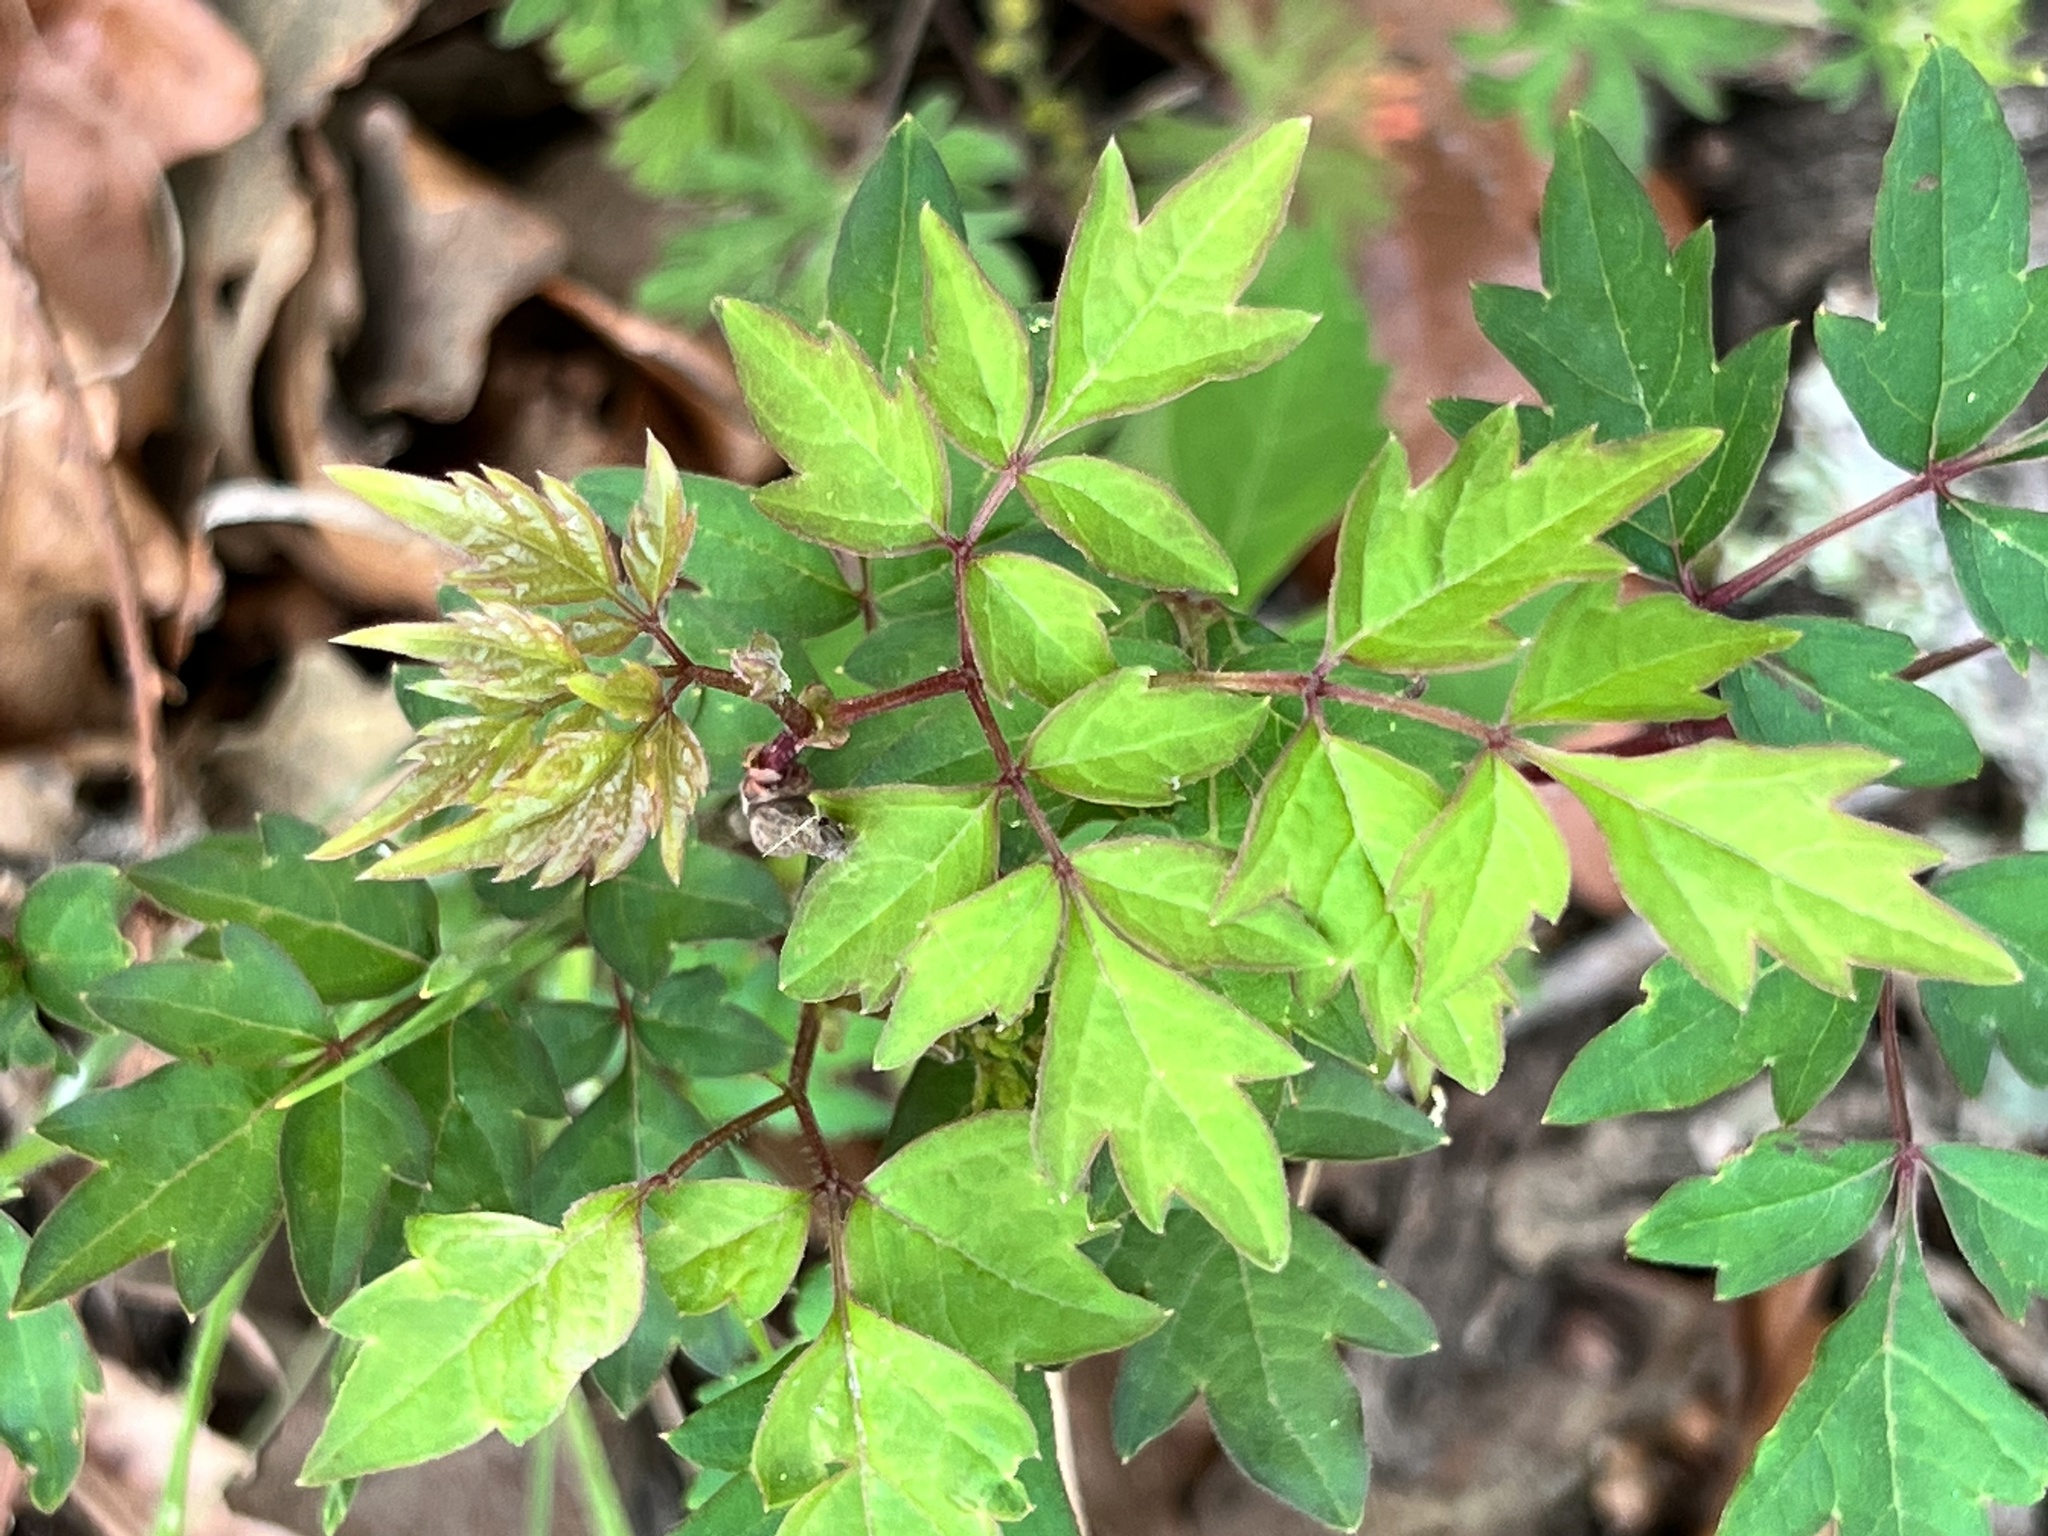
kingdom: Plantae
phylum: Tracheophyta
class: Magnoliopsida
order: Vitales
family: Vitaceae
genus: Nekemias
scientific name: Nekemias arborea
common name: Peppervine
